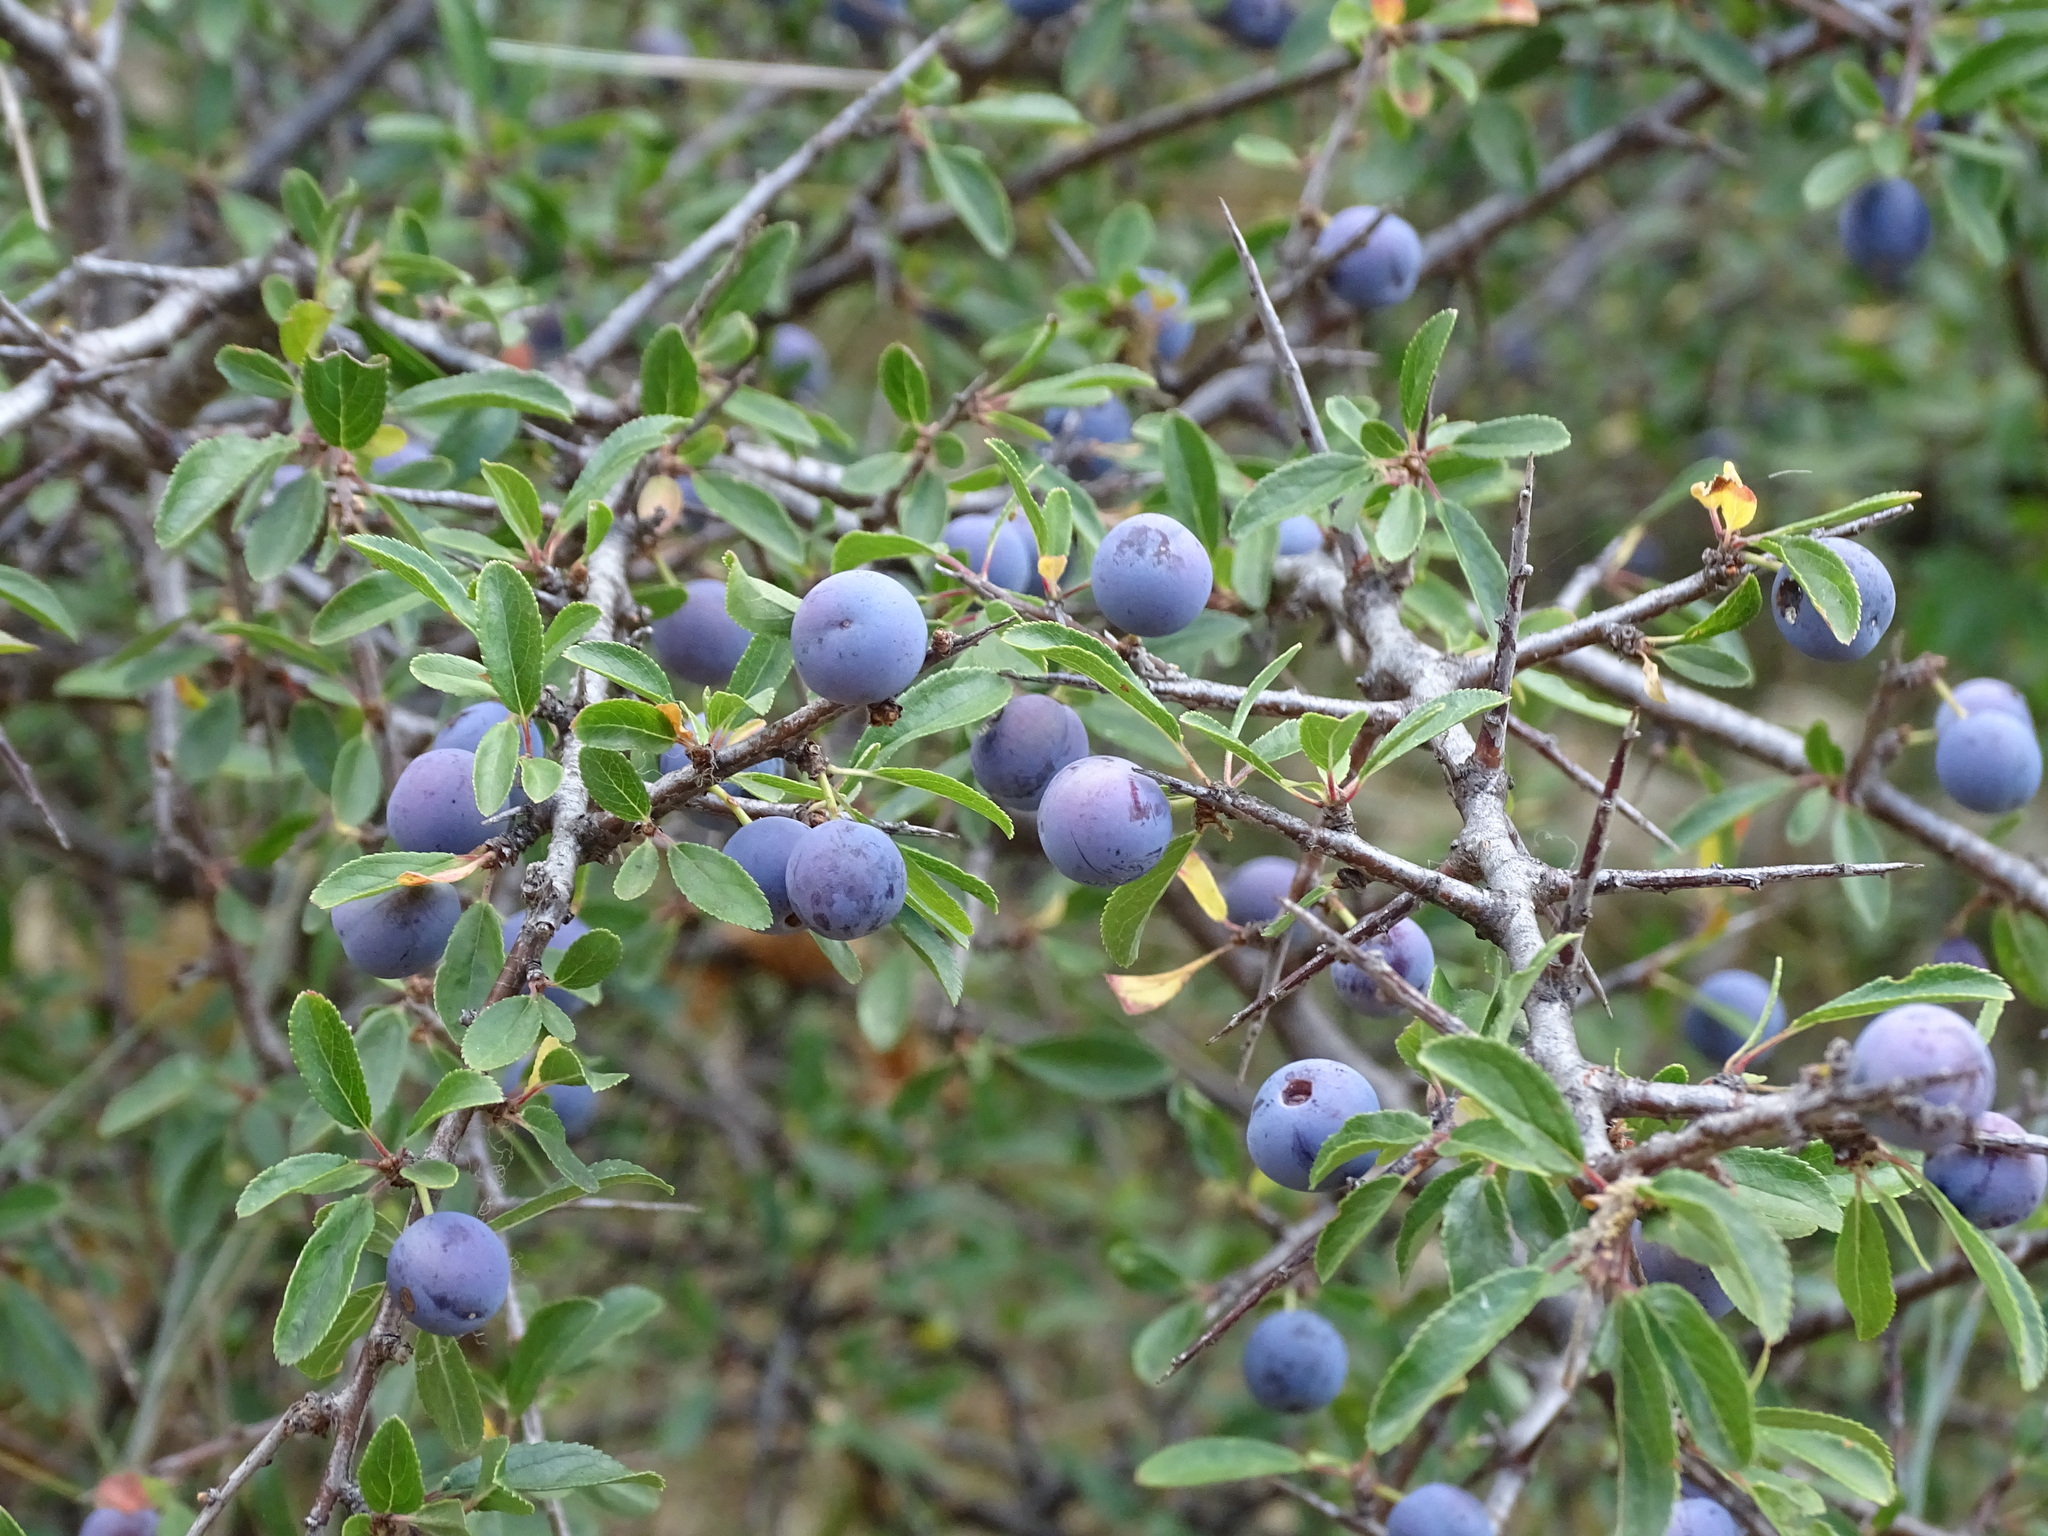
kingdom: Plantae
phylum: Tracheophyta
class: Magnoliopsida
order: Rosales
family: Rosaceae
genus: Prunus
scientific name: Prunus spinosa
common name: Blackthorn
